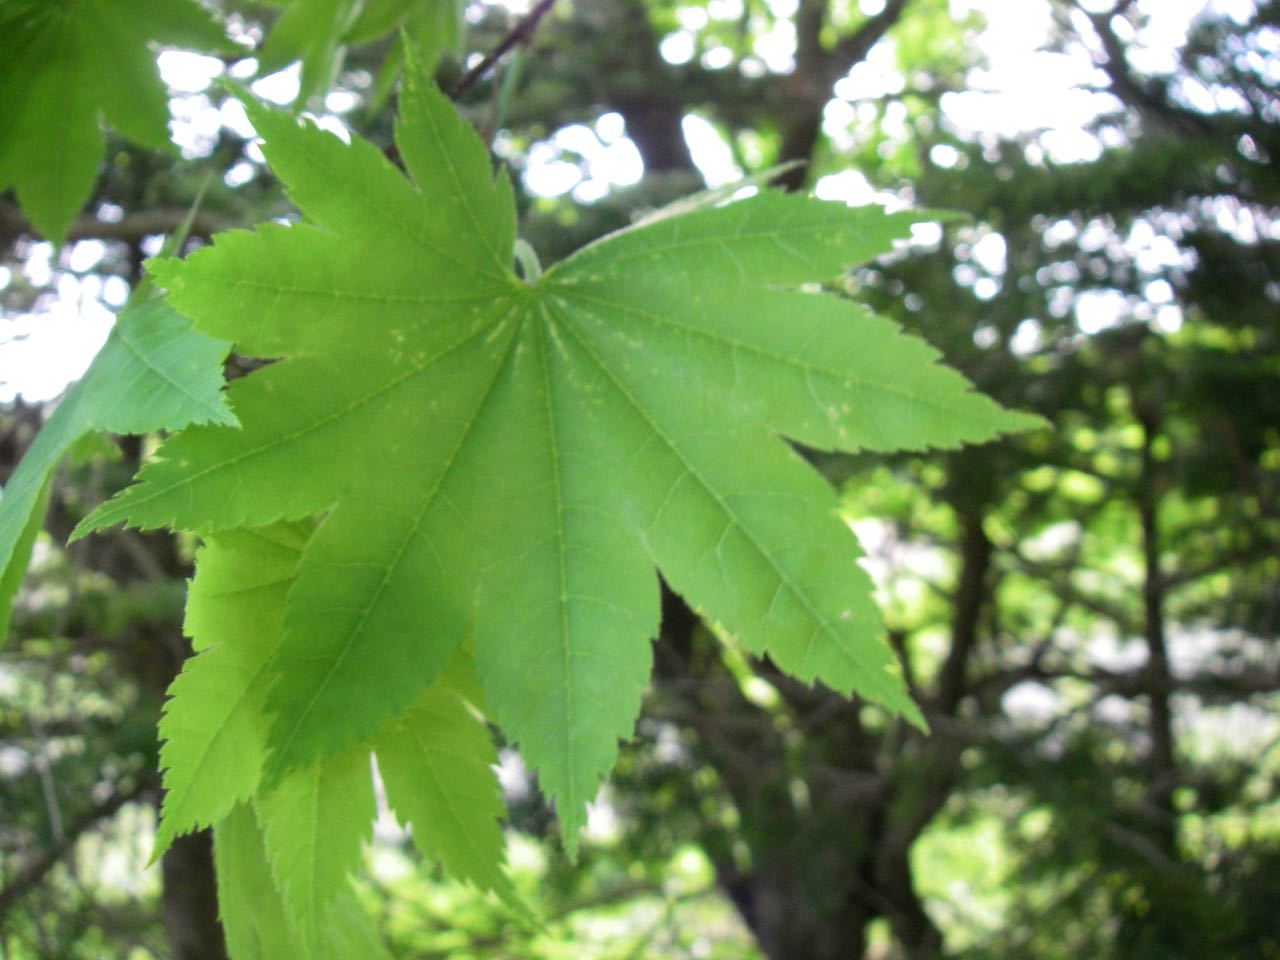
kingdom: Plantae
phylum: Tracheophyta
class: Magnoliopsida
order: Sapindales
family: Sapindaceae
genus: Acer
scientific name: Acer shirasawanum
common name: Full moon maple
